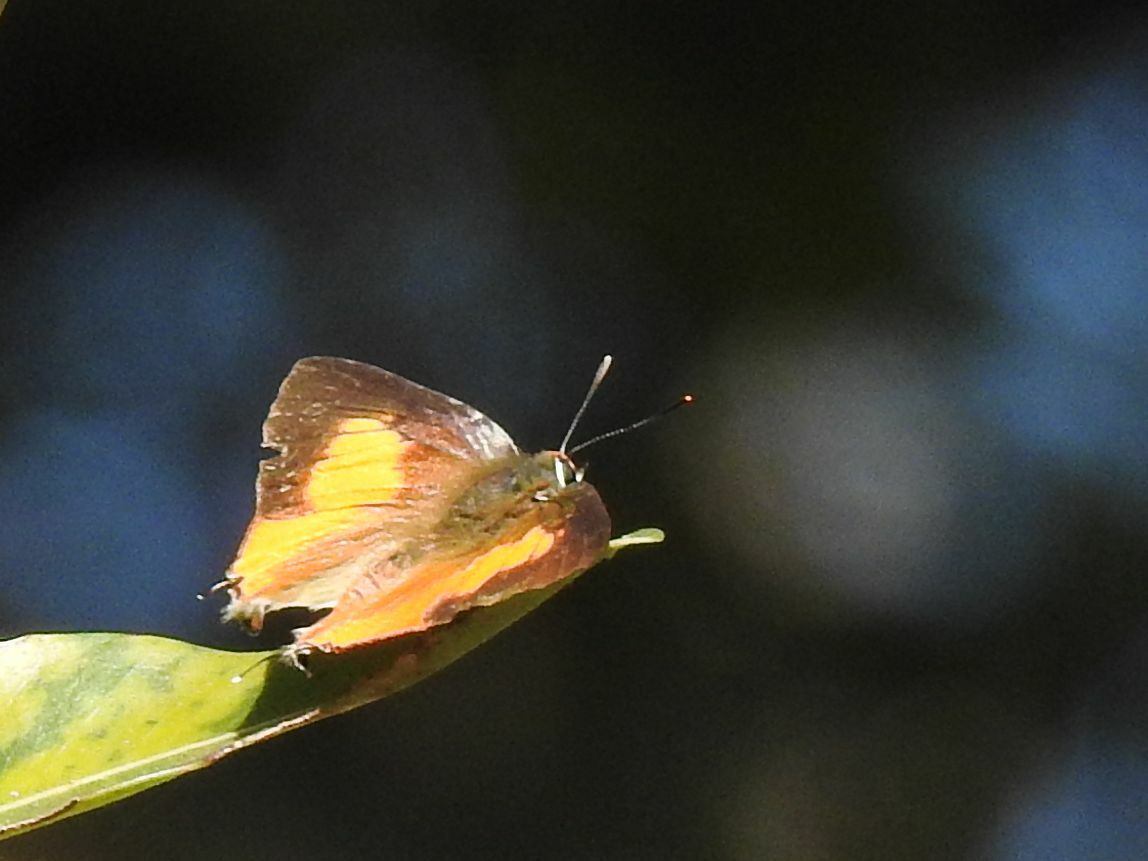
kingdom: Animalia
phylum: Arthropoda
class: Insecta
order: Lepidoptera
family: Lycaenidae
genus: Deudorix
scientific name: Deudorix diocles
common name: Orange-barred playboy
